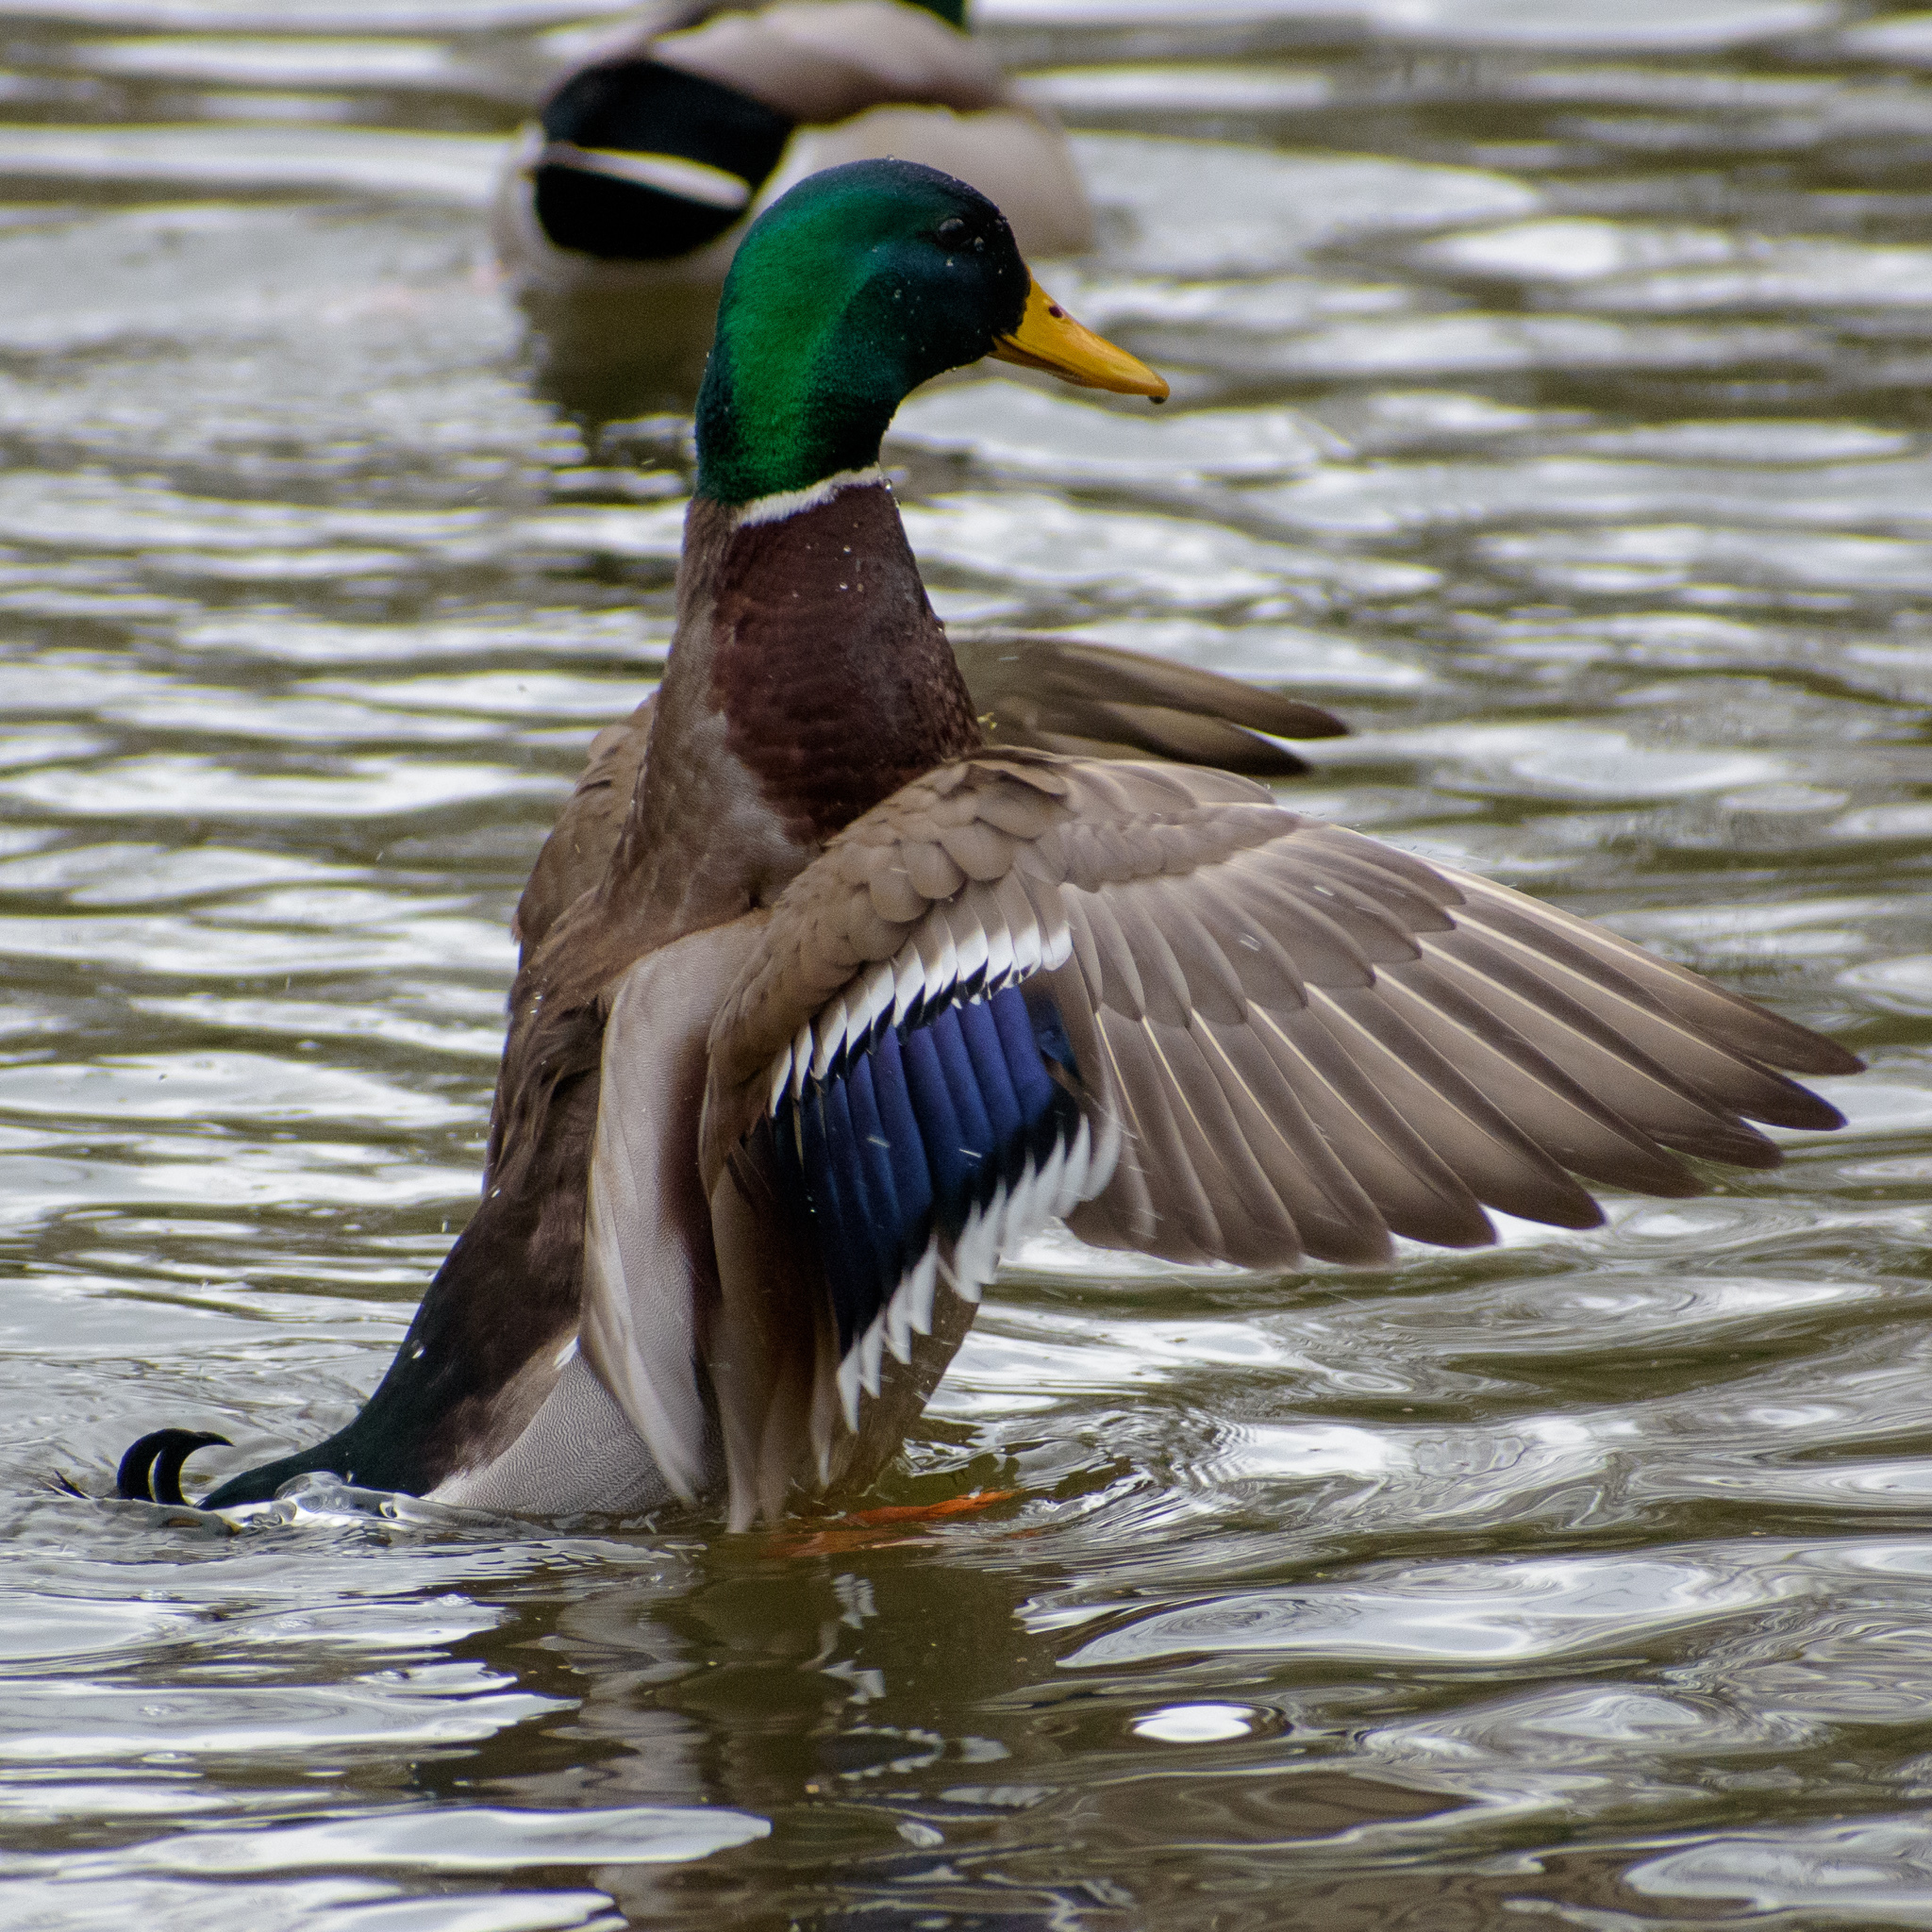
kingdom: Animalia
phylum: Chordata
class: Aves
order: Anseriformes
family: Anatidae
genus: Anas
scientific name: Anas platyrhynchos
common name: Mallard
